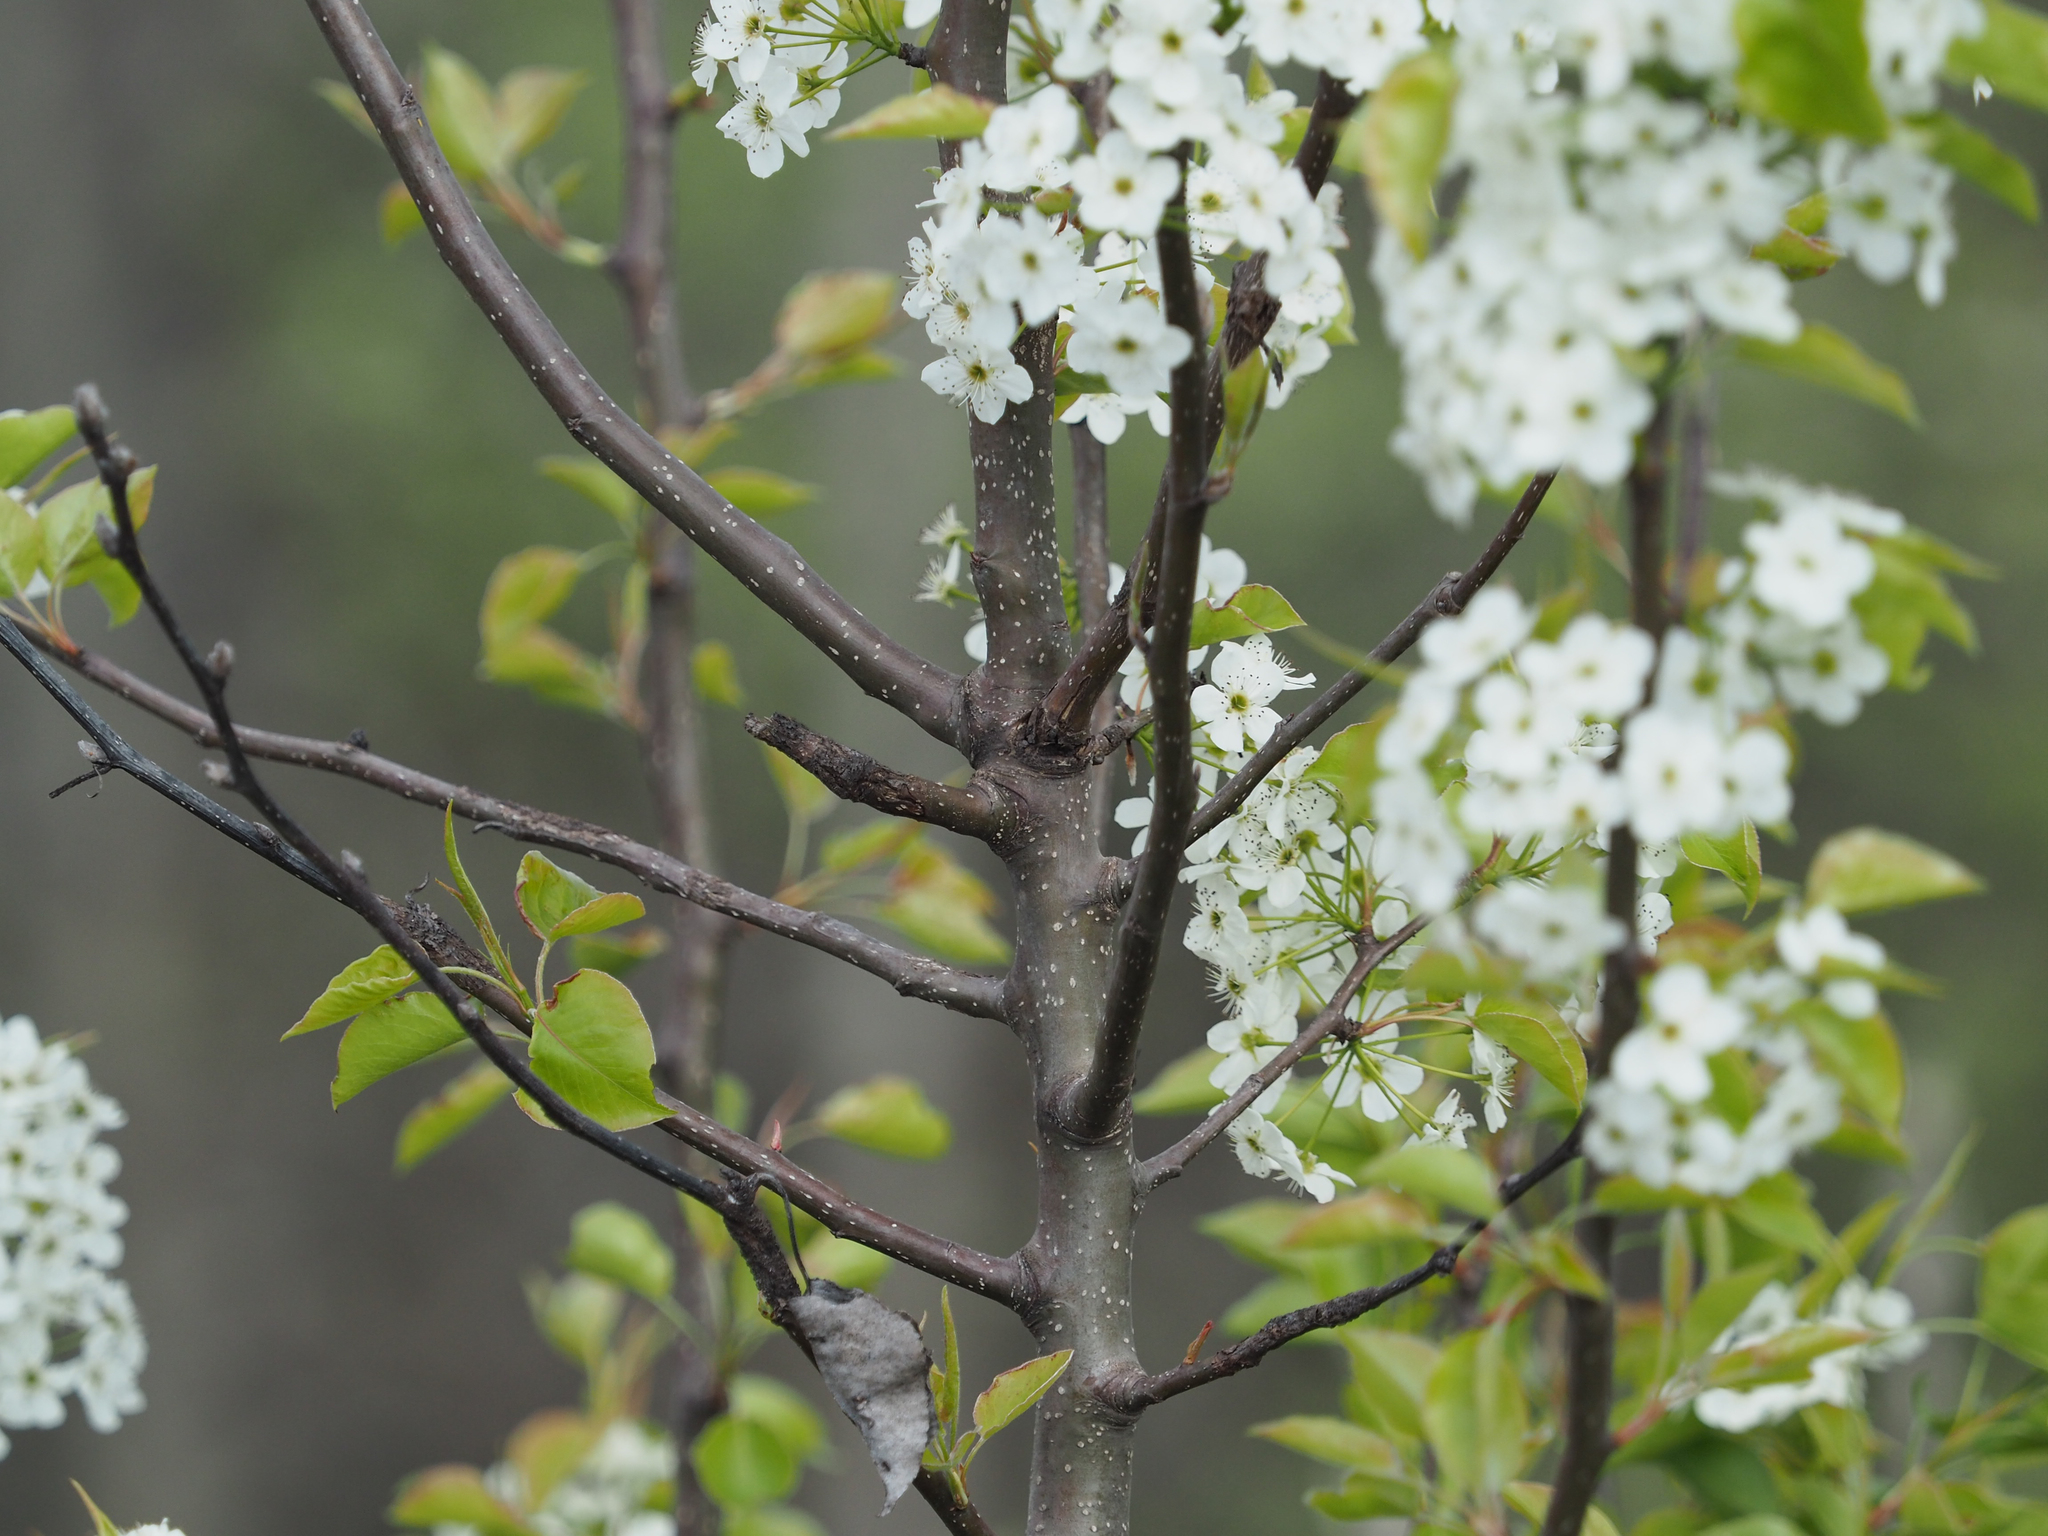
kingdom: Plantae
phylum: Tracheophyta
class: Magnoliopsida
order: Rosales
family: Rosaceae
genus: Pyrus
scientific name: Pyrus calleryana
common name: Callery pear
